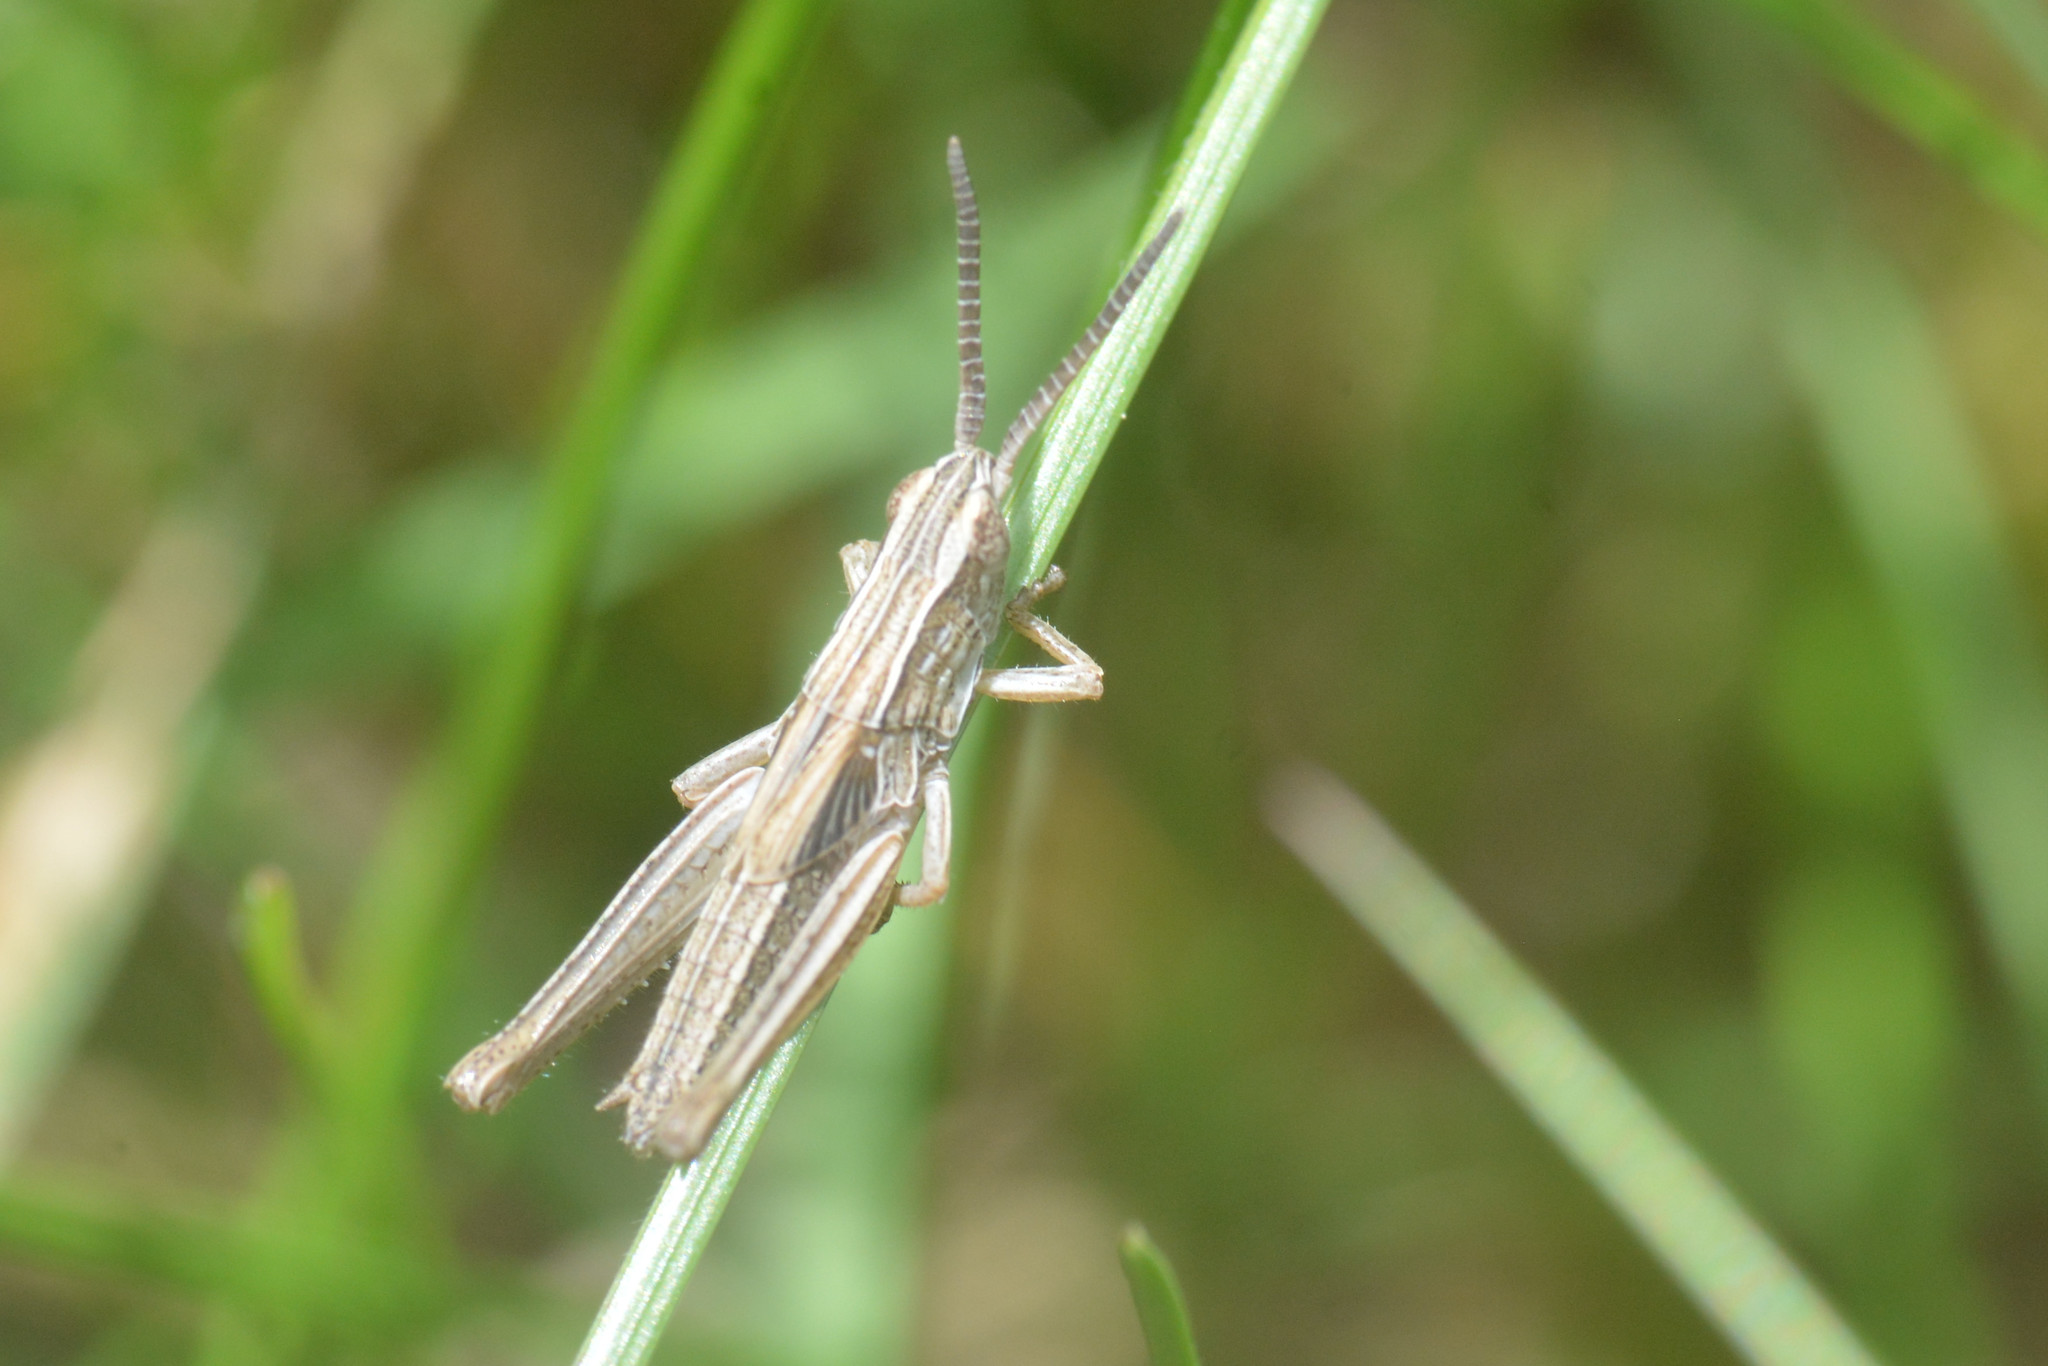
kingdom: Animalia
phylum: Arthropoda
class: Insecta
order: Orthoptera
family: Acrididae
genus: Chorthippus
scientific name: Chorthippus albomarginatus
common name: Lesser marsh grasshopper
